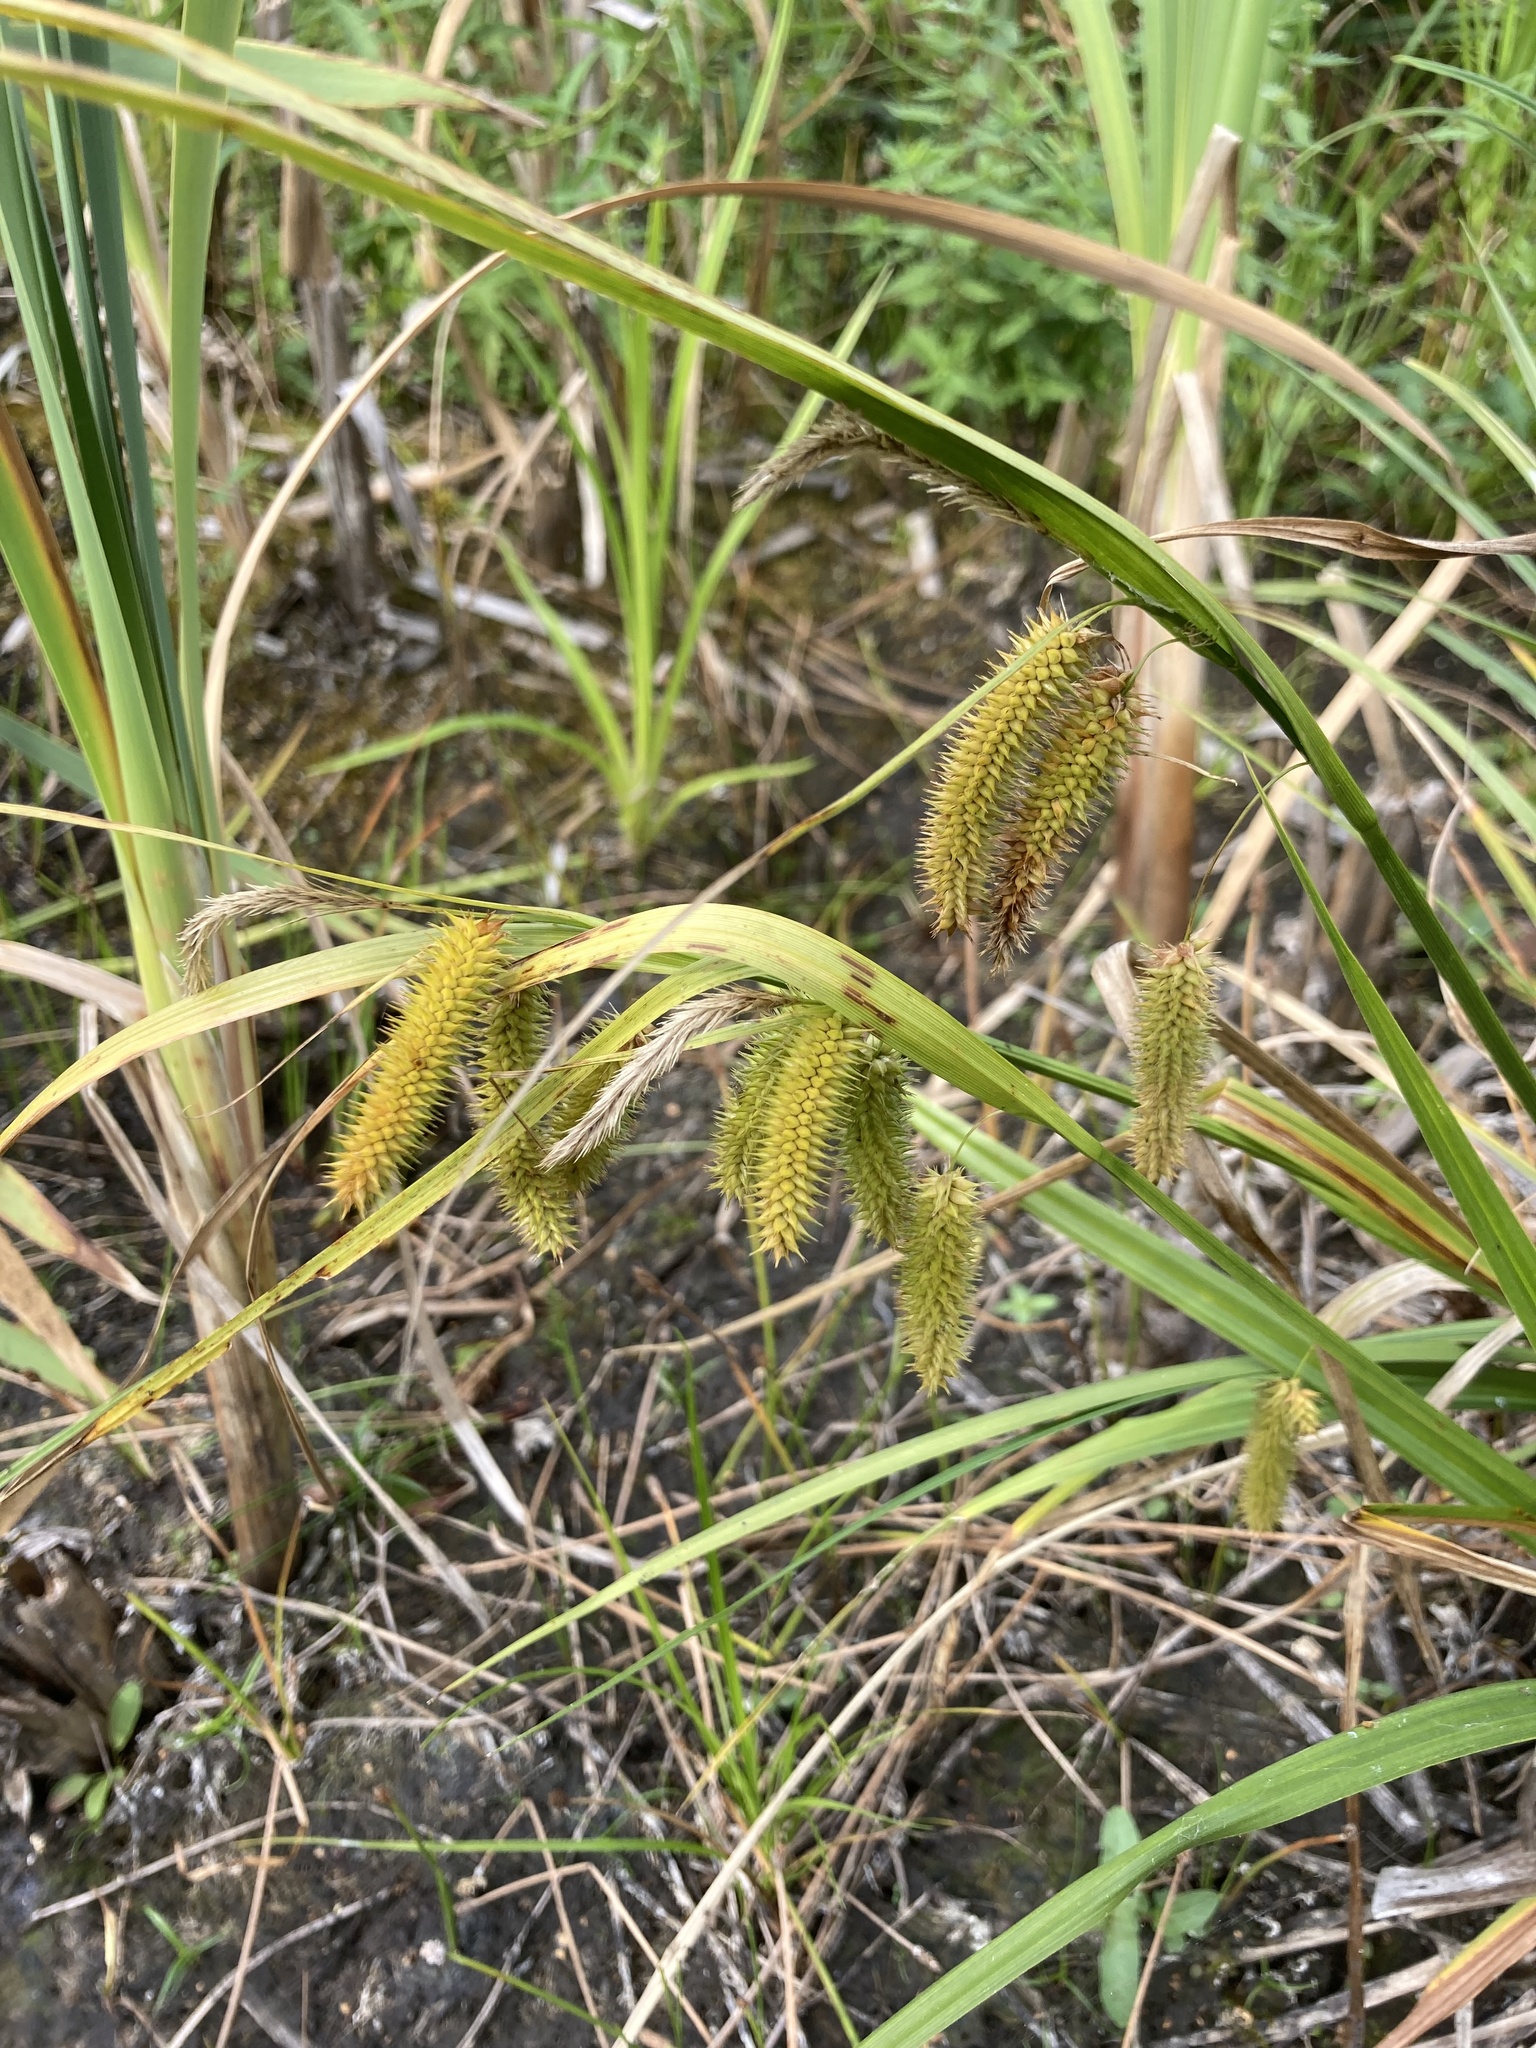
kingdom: Plantae
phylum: Tracheophyta
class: Liliopsida
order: Poales
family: Cyperaceae
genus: Carex
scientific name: Carex pseudocyperus
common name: Cyperus sedge
